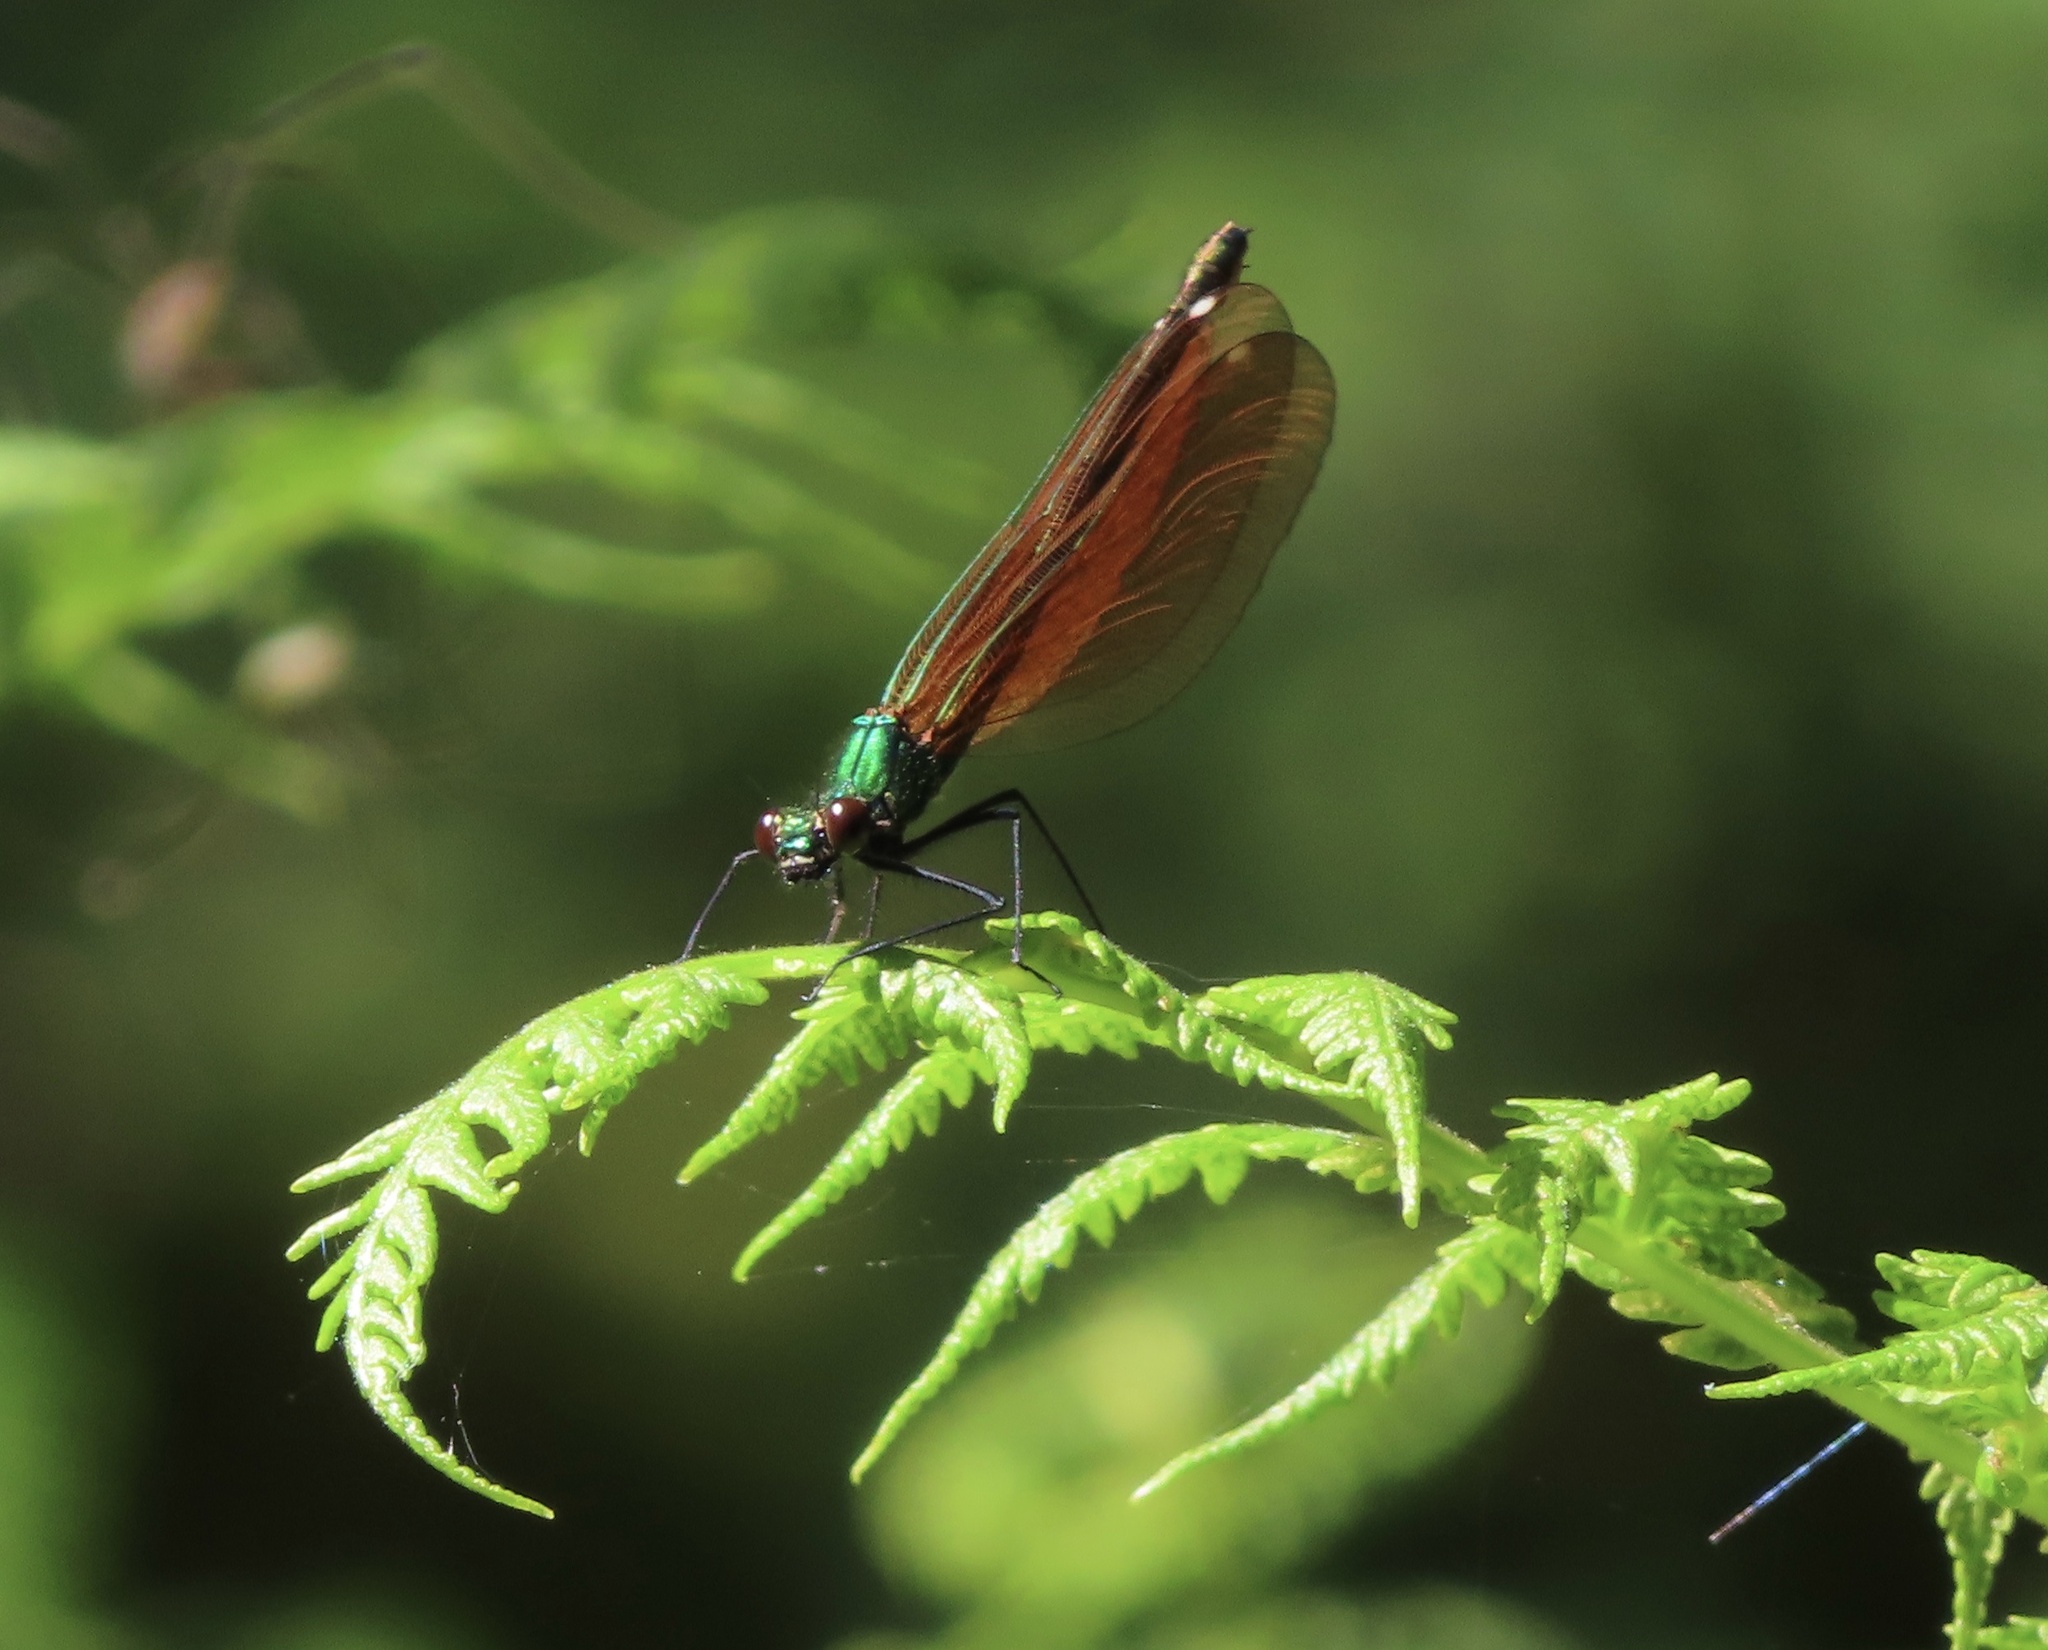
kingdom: Animalia
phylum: Arthropoda
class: Insecta
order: Odonata
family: Calopterygidae
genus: Calopteryx
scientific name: Calopteryx virgo
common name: Beautiful demoiselle
